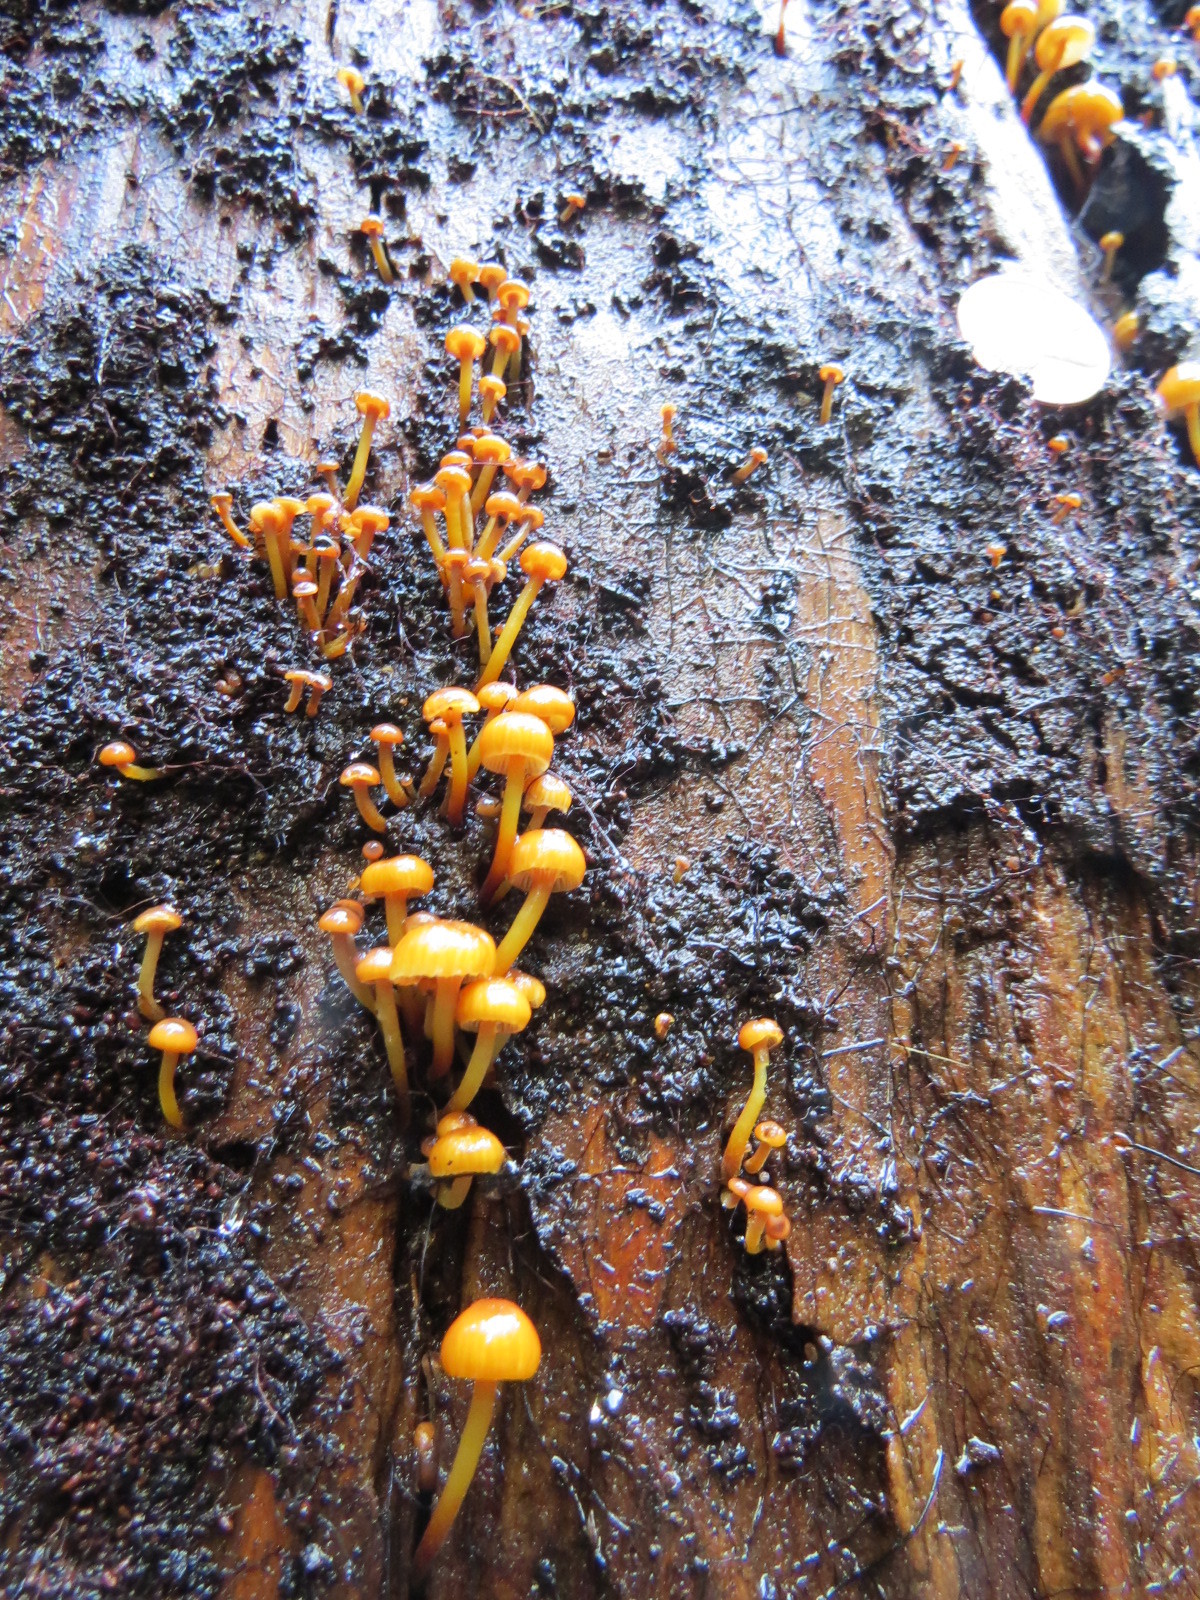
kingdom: Fungi
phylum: Basidiomycota
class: Agaricomycetes
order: Agaricales
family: Mycenaceae
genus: Xeromphalina
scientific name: Xeromphalina campanella
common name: Pinewood gingertail
